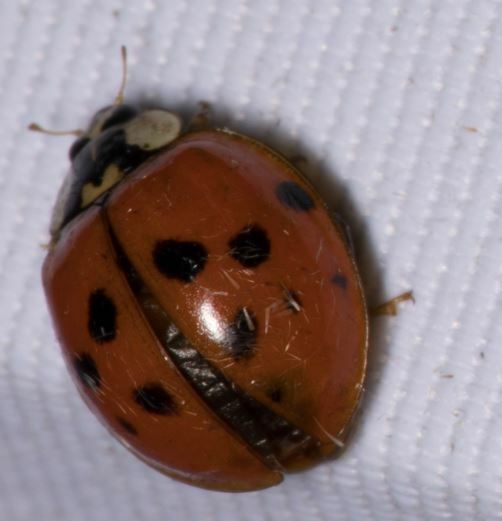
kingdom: Animalia
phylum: Arthropoda
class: Insecta
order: Coleoptera
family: Coccinellidae
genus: Harmonia
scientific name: Harmonia axyridis
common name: Harlequin ladybird
